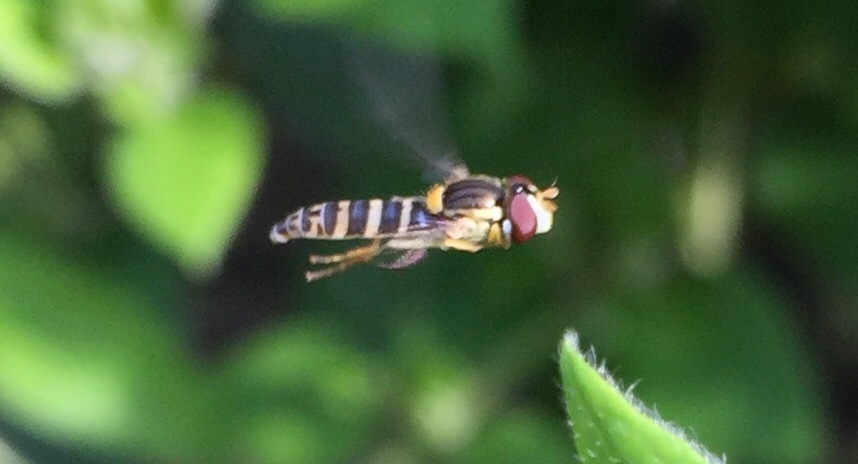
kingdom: Animalia
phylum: Arthropoda
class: Insecta
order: Diptera
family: Syrphidae
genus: Sphaerophoria
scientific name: Sphaerophoria
